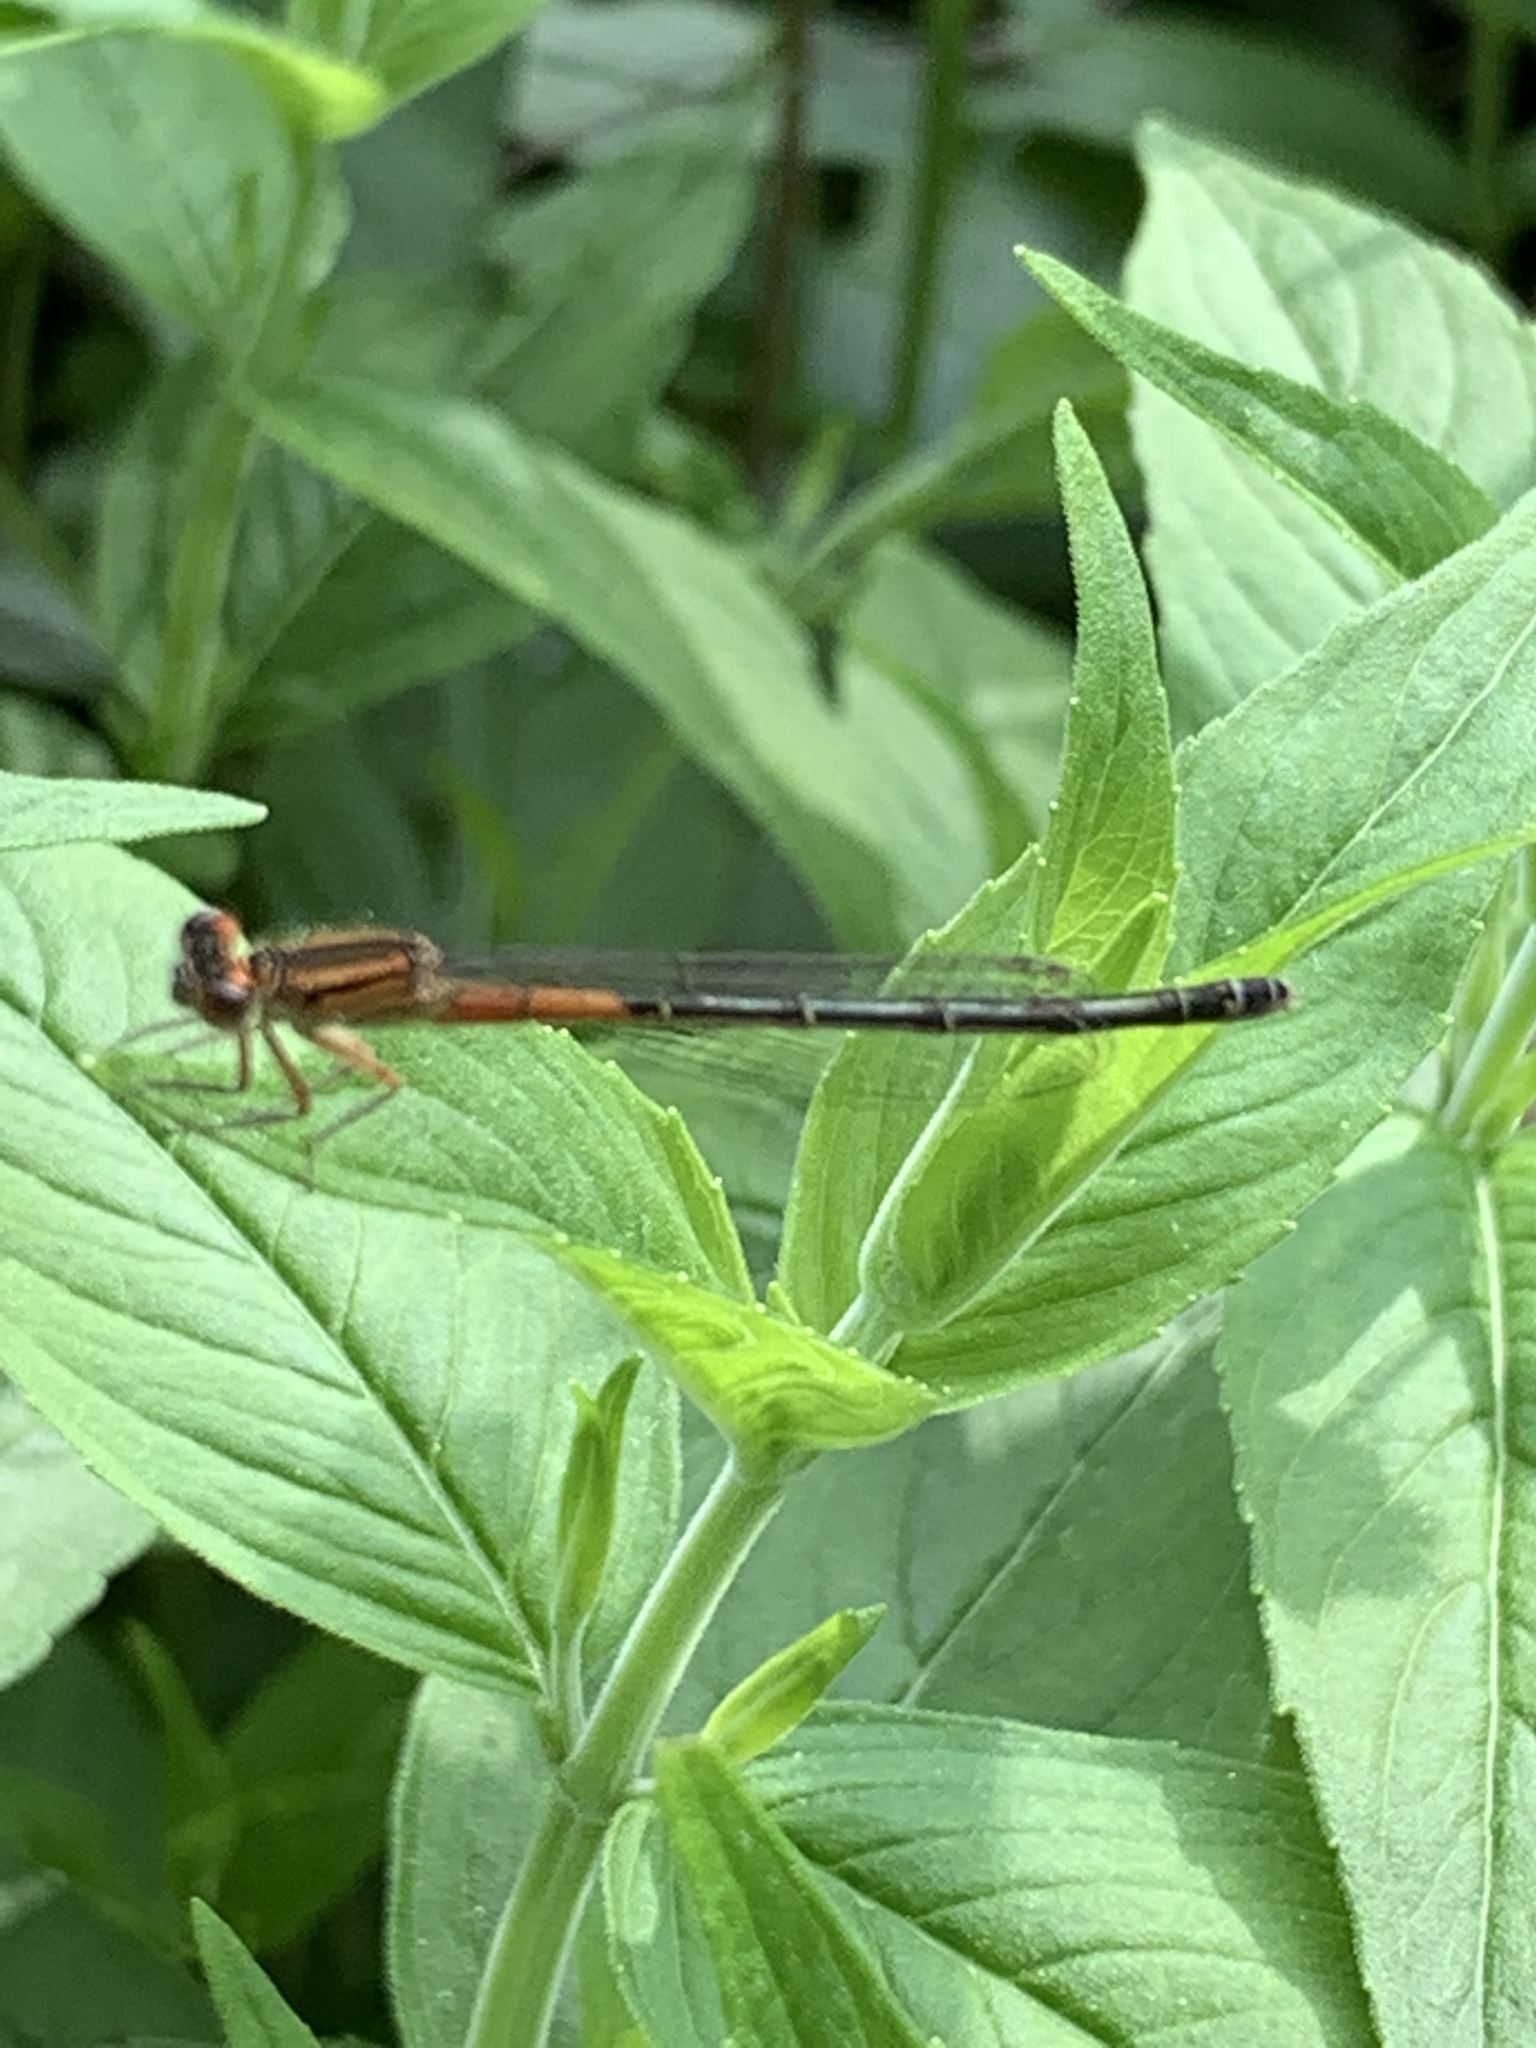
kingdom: Animalia
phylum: Arthropoda
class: Insecta
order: Odonata
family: Coenagrionidae
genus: Ischnura
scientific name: Ischnura verticalis
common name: Eastern forktail
